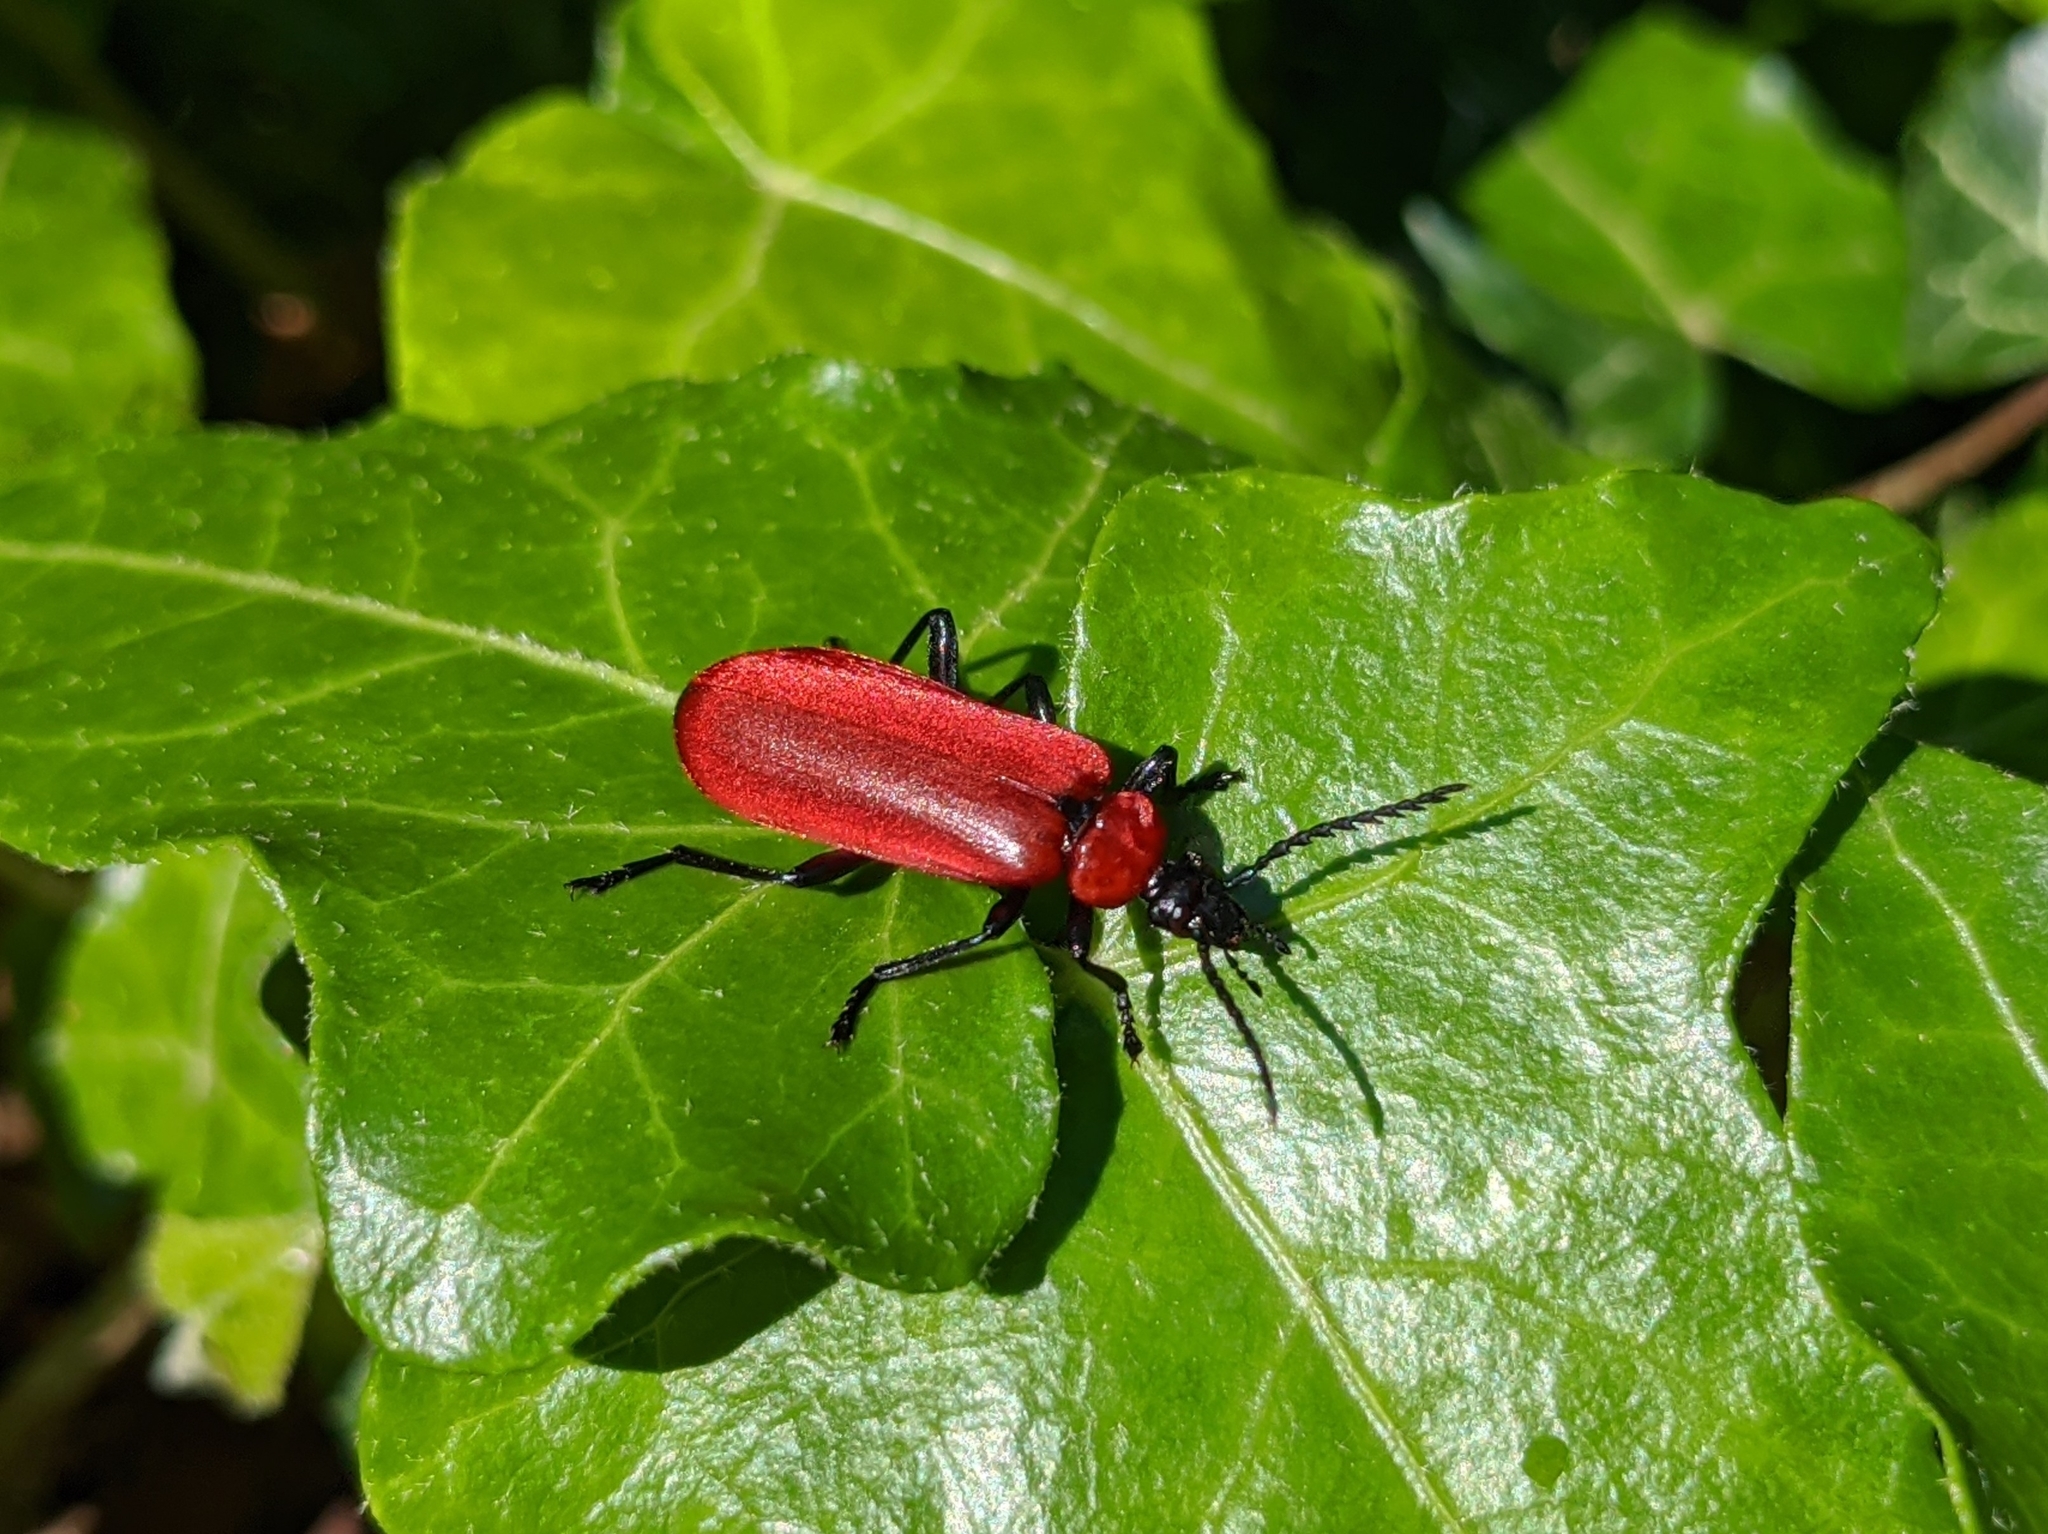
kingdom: Animalia
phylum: Arthropoda
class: Insecta
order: Coleoptera
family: Pyrochroidae
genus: Pyrochroa
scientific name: Pyrochroa coccinea
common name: Black-headed cardinal beetle
